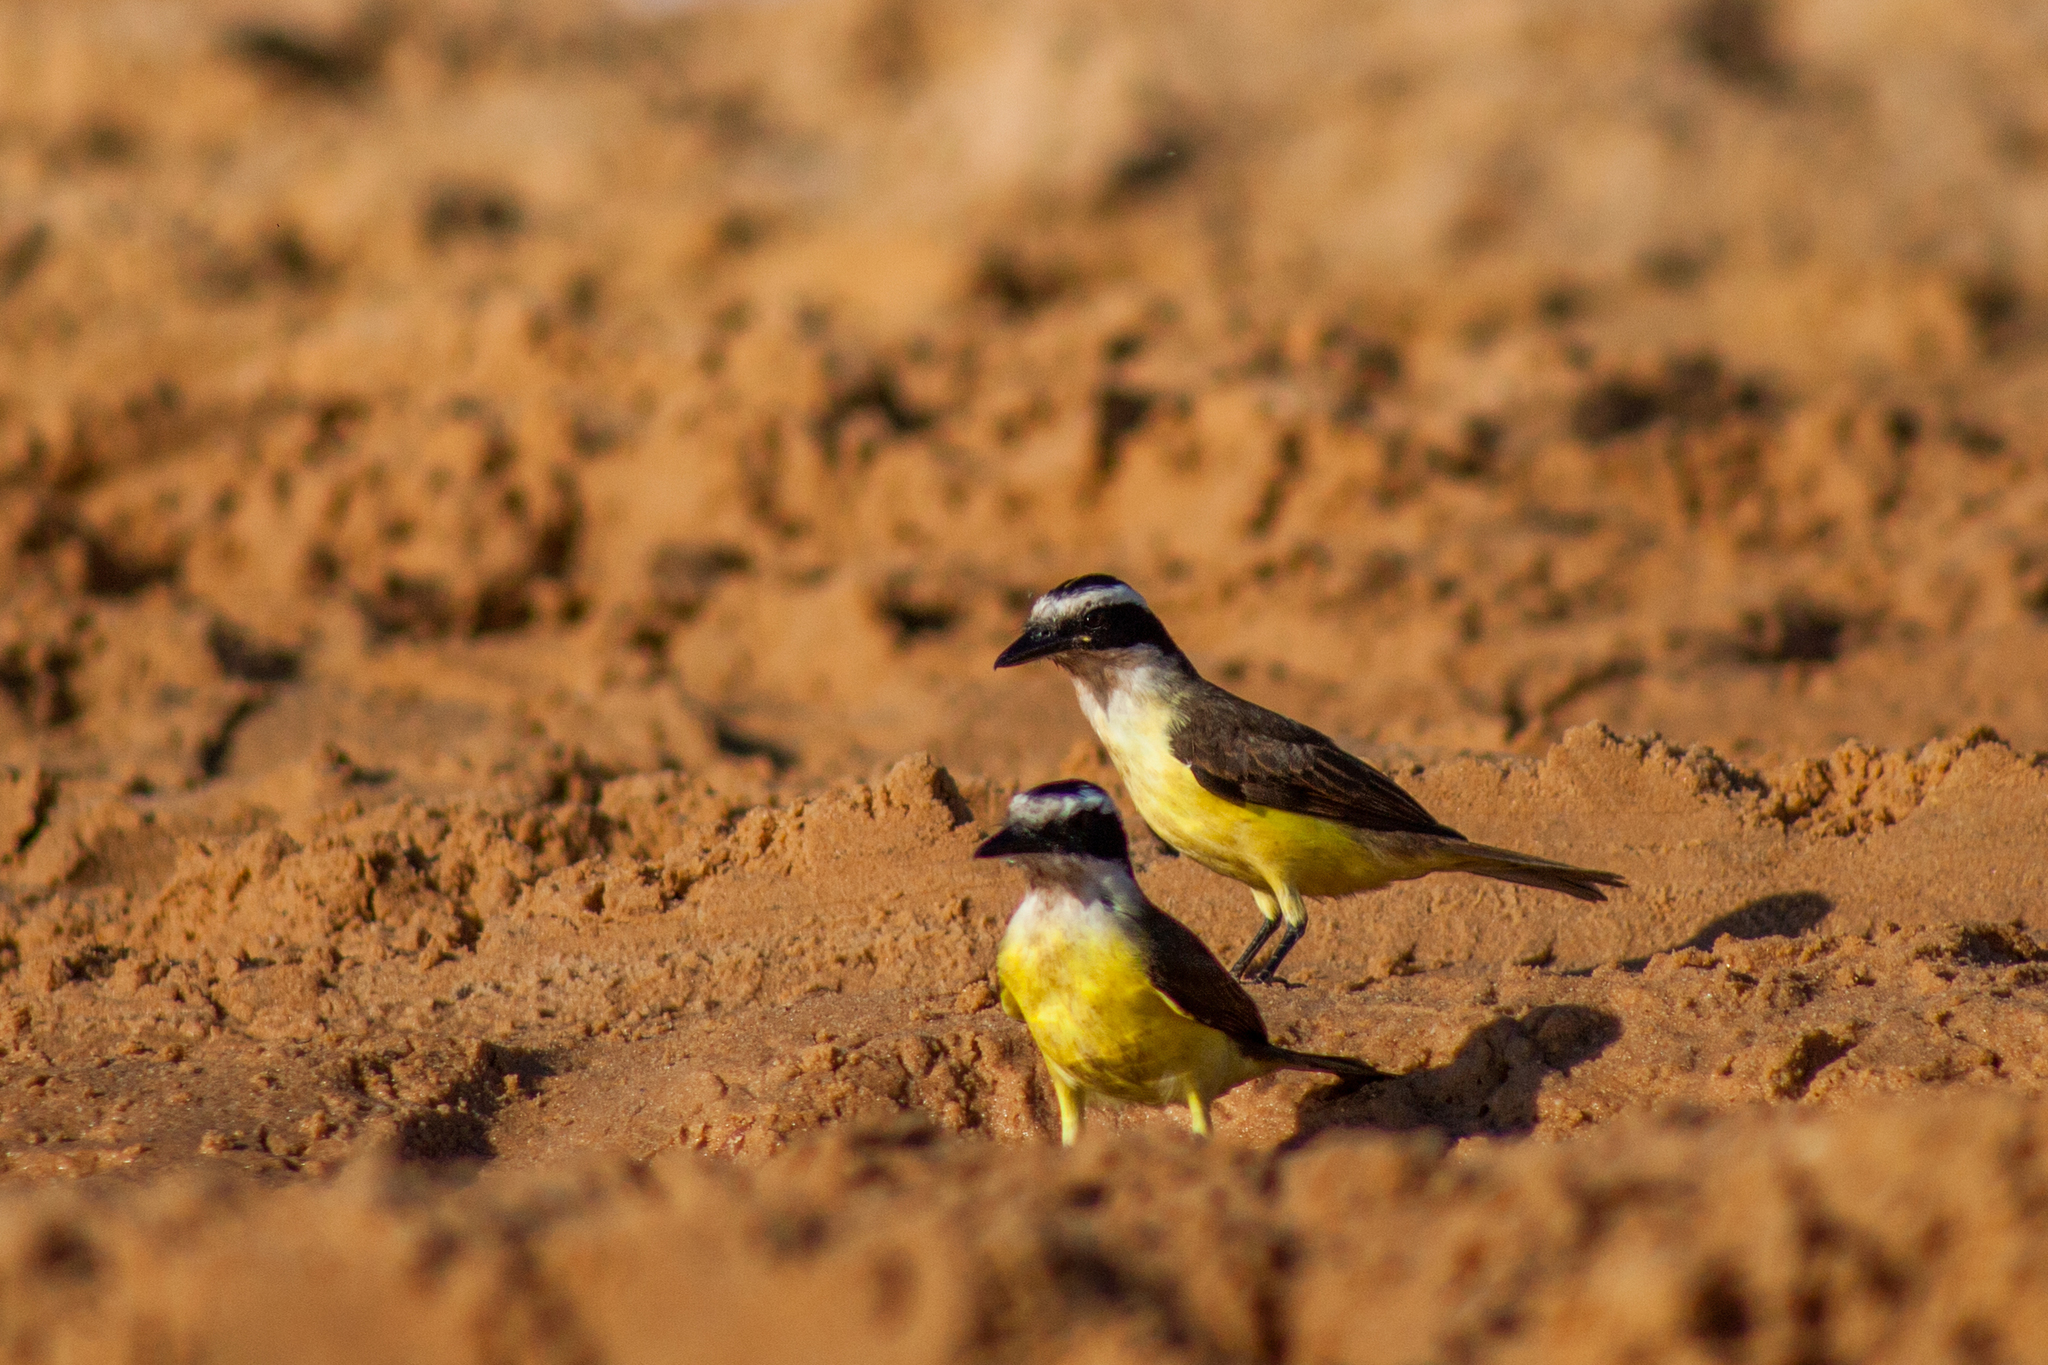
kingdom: Animalia
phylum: Chordata
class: Aves
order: Passeriformes
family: Tyrannidae
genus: Pitangus
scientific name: Pitangus sulphuratus
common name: Great kiskadee
